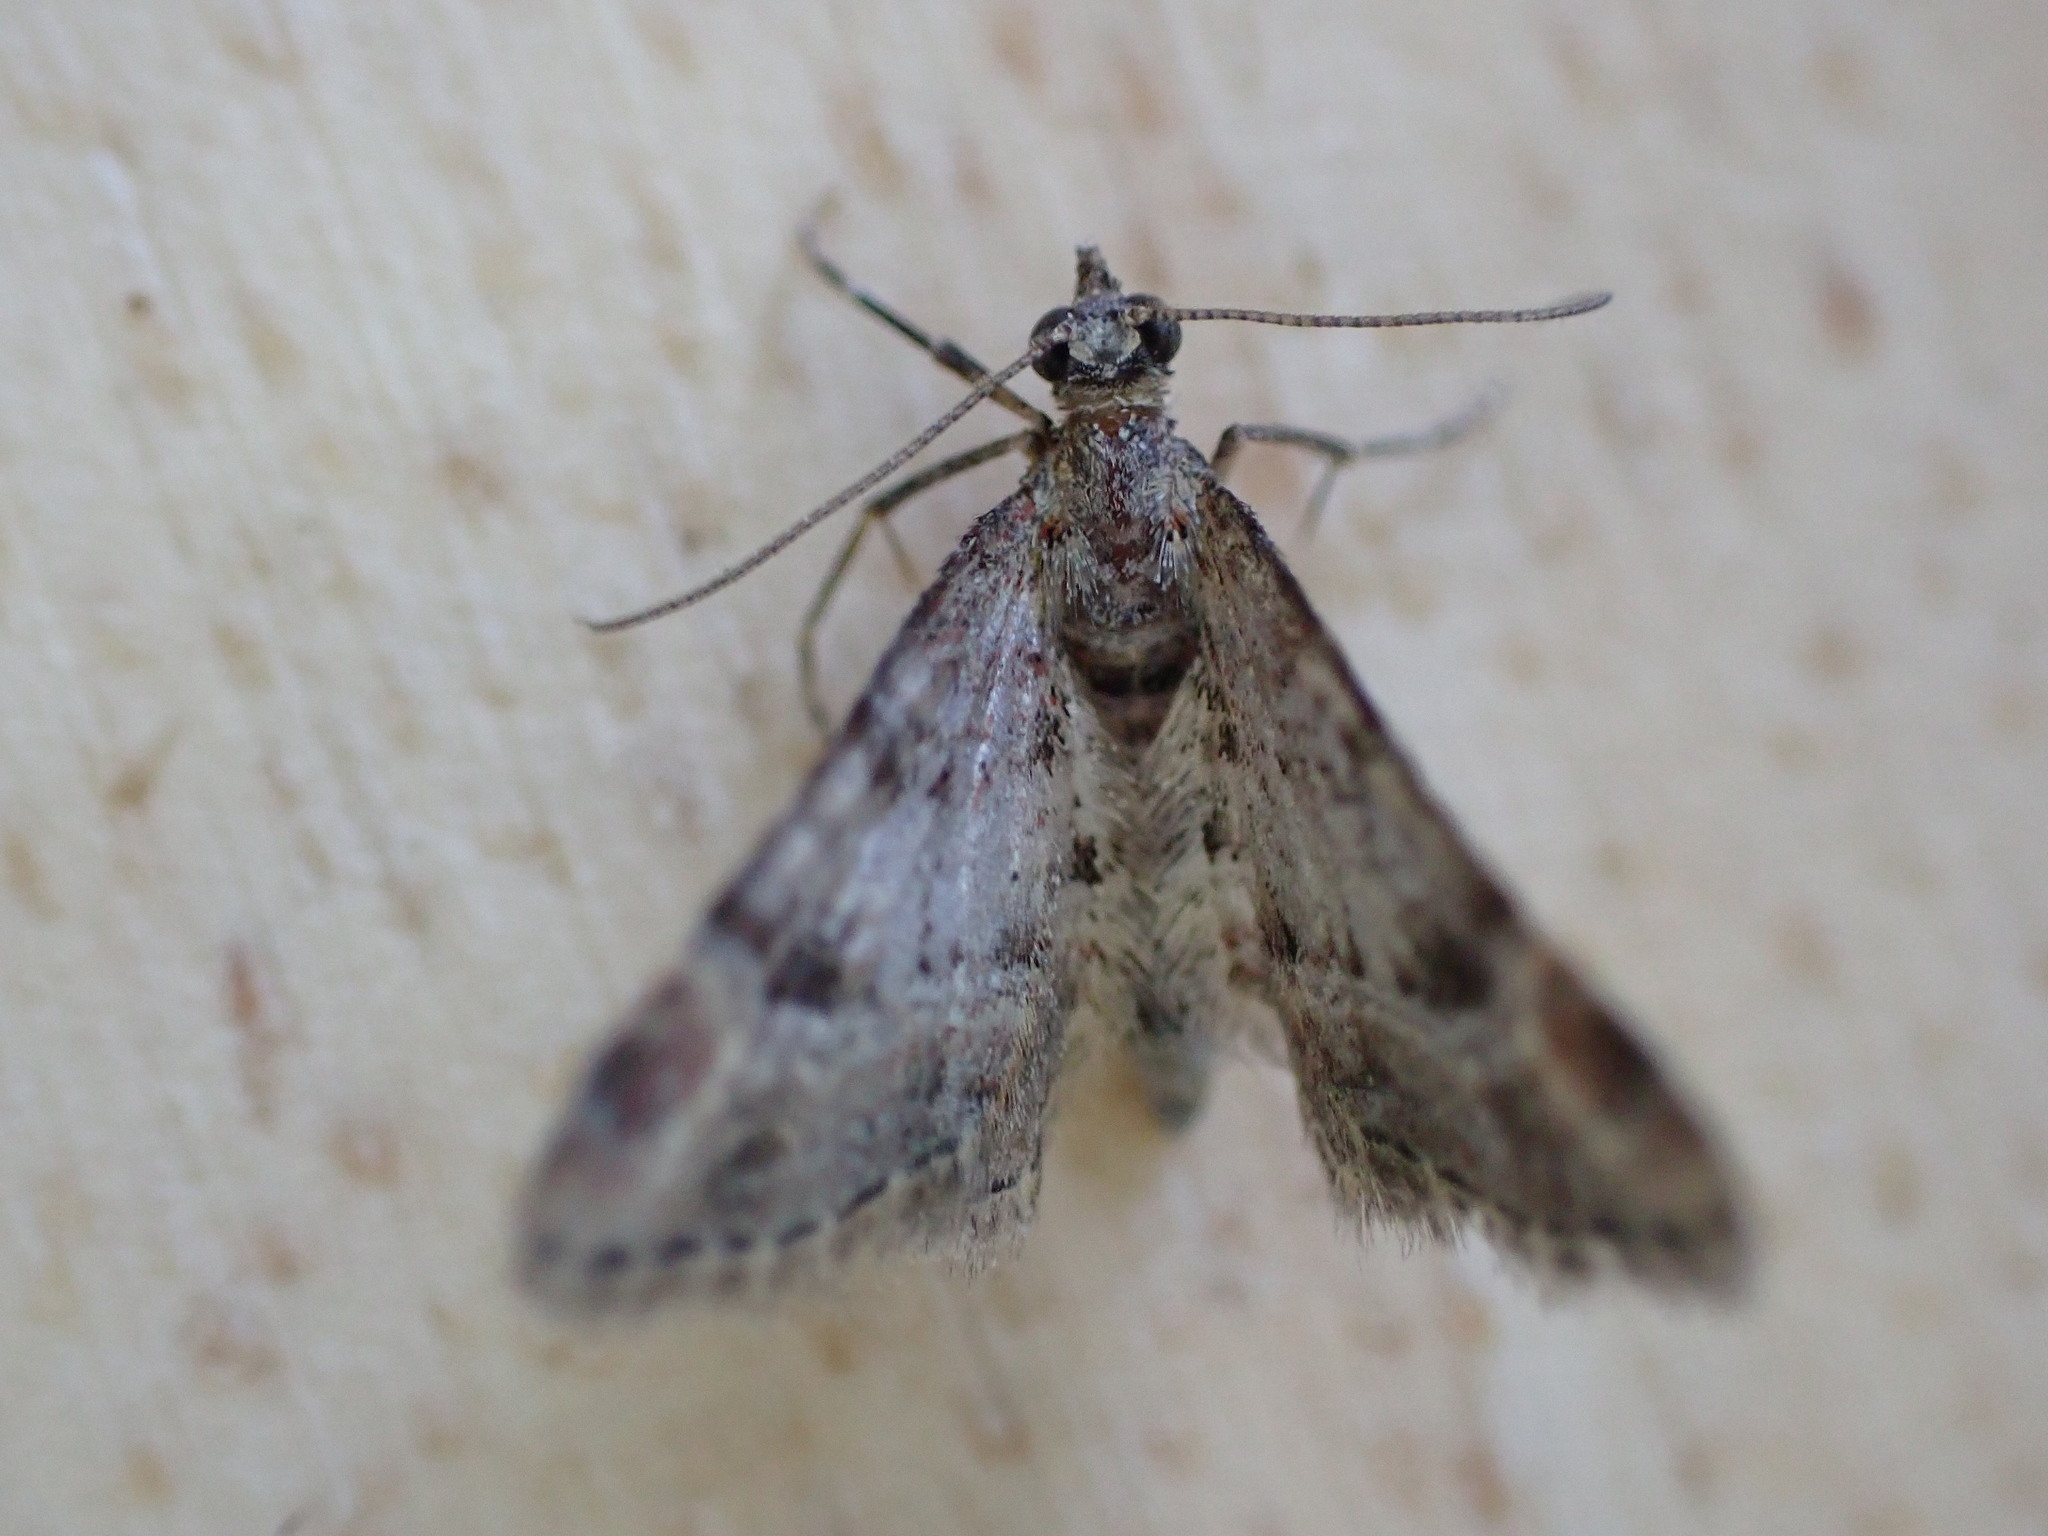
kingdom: Animalia
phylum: Arthropoda
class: Insecta
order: Lepidoptera
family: Geometridae
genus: Gymnoscelis
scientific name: Gymnoscelis rufifasciata
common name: Double-striped pug
